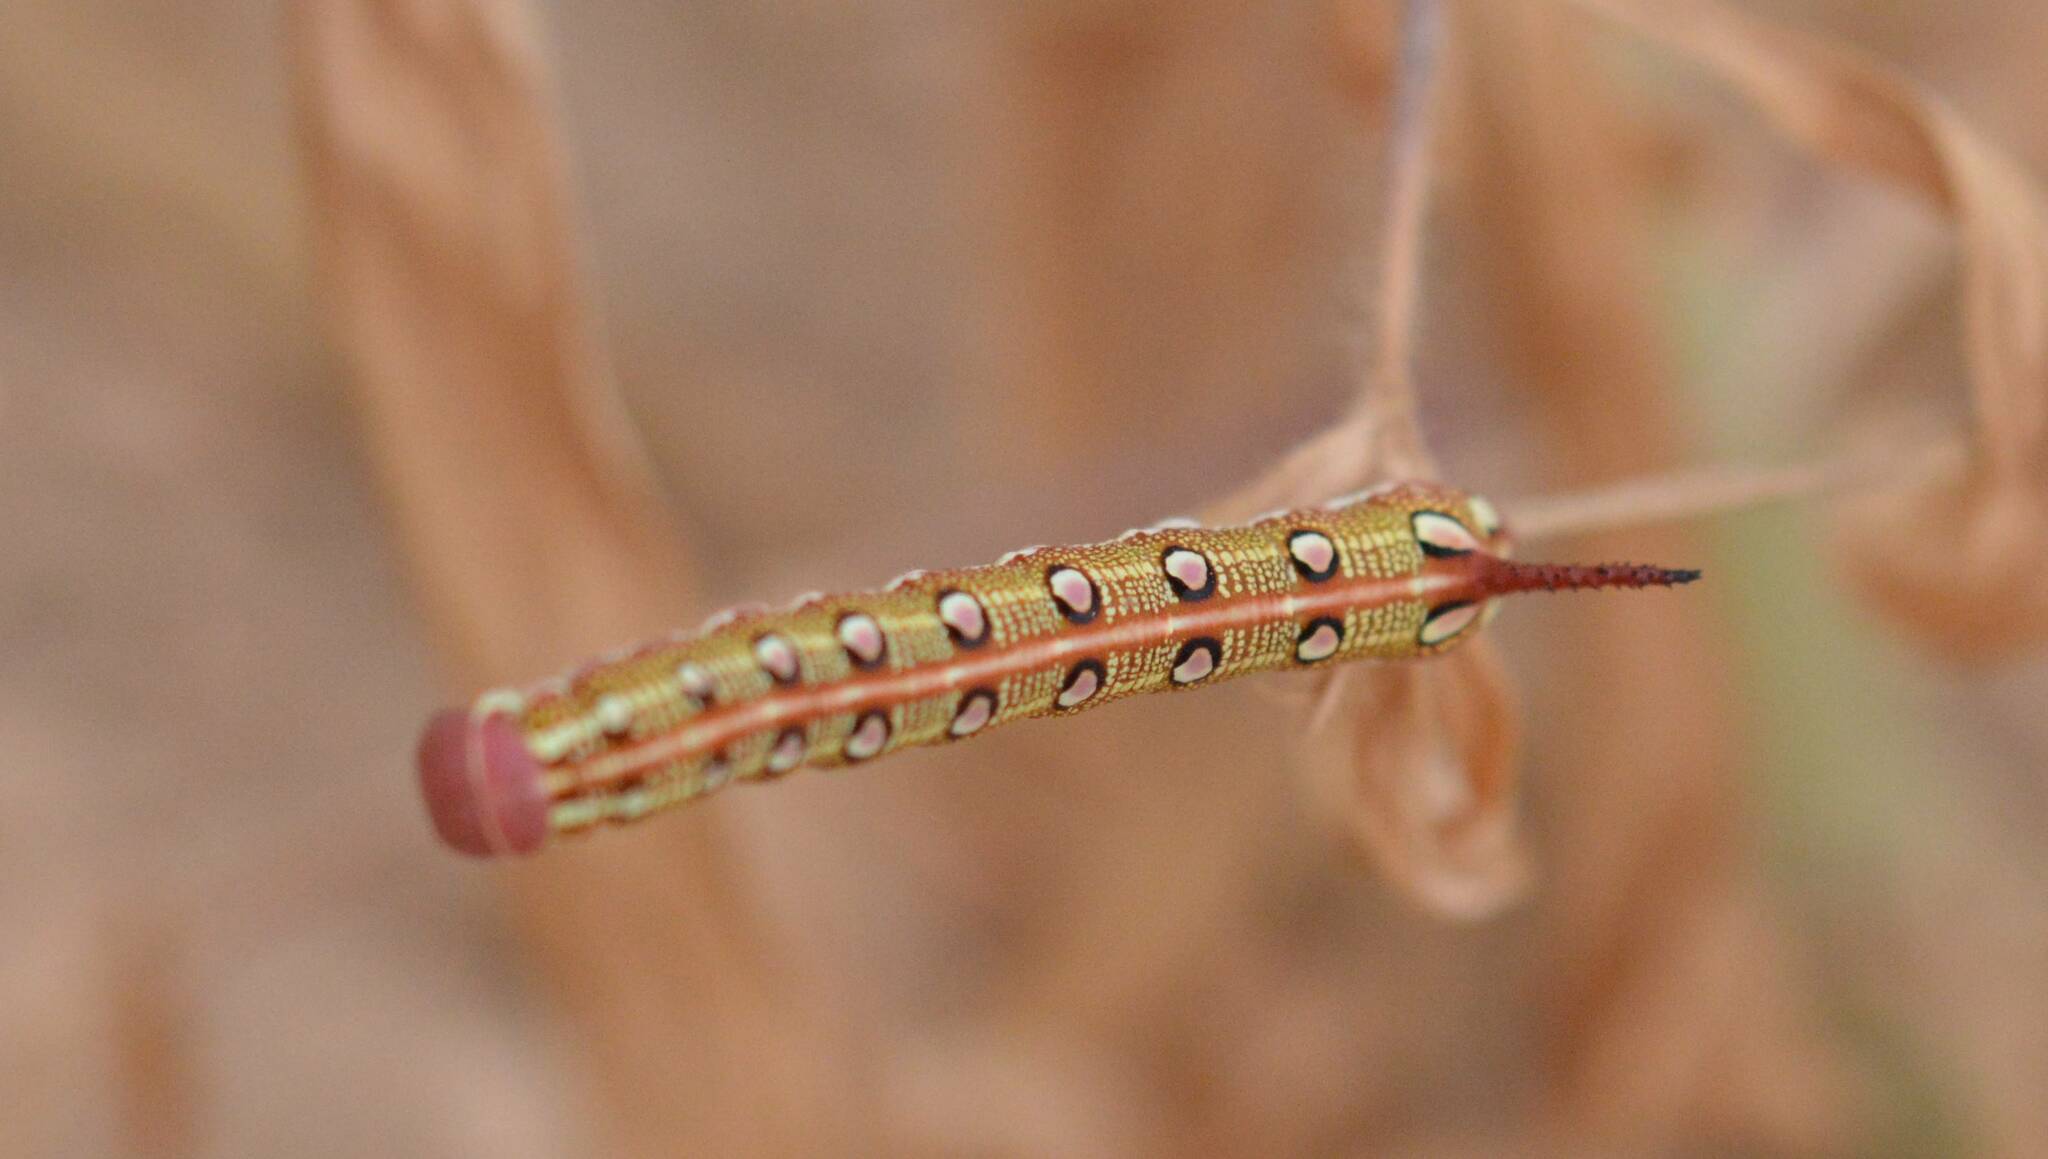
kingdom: Animalia
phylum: Arthropoda
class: Insecta
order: Lepidoptera
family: Sphingidae
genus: Hyles
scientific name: Hyles livornica
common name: Striped hawk-moth
